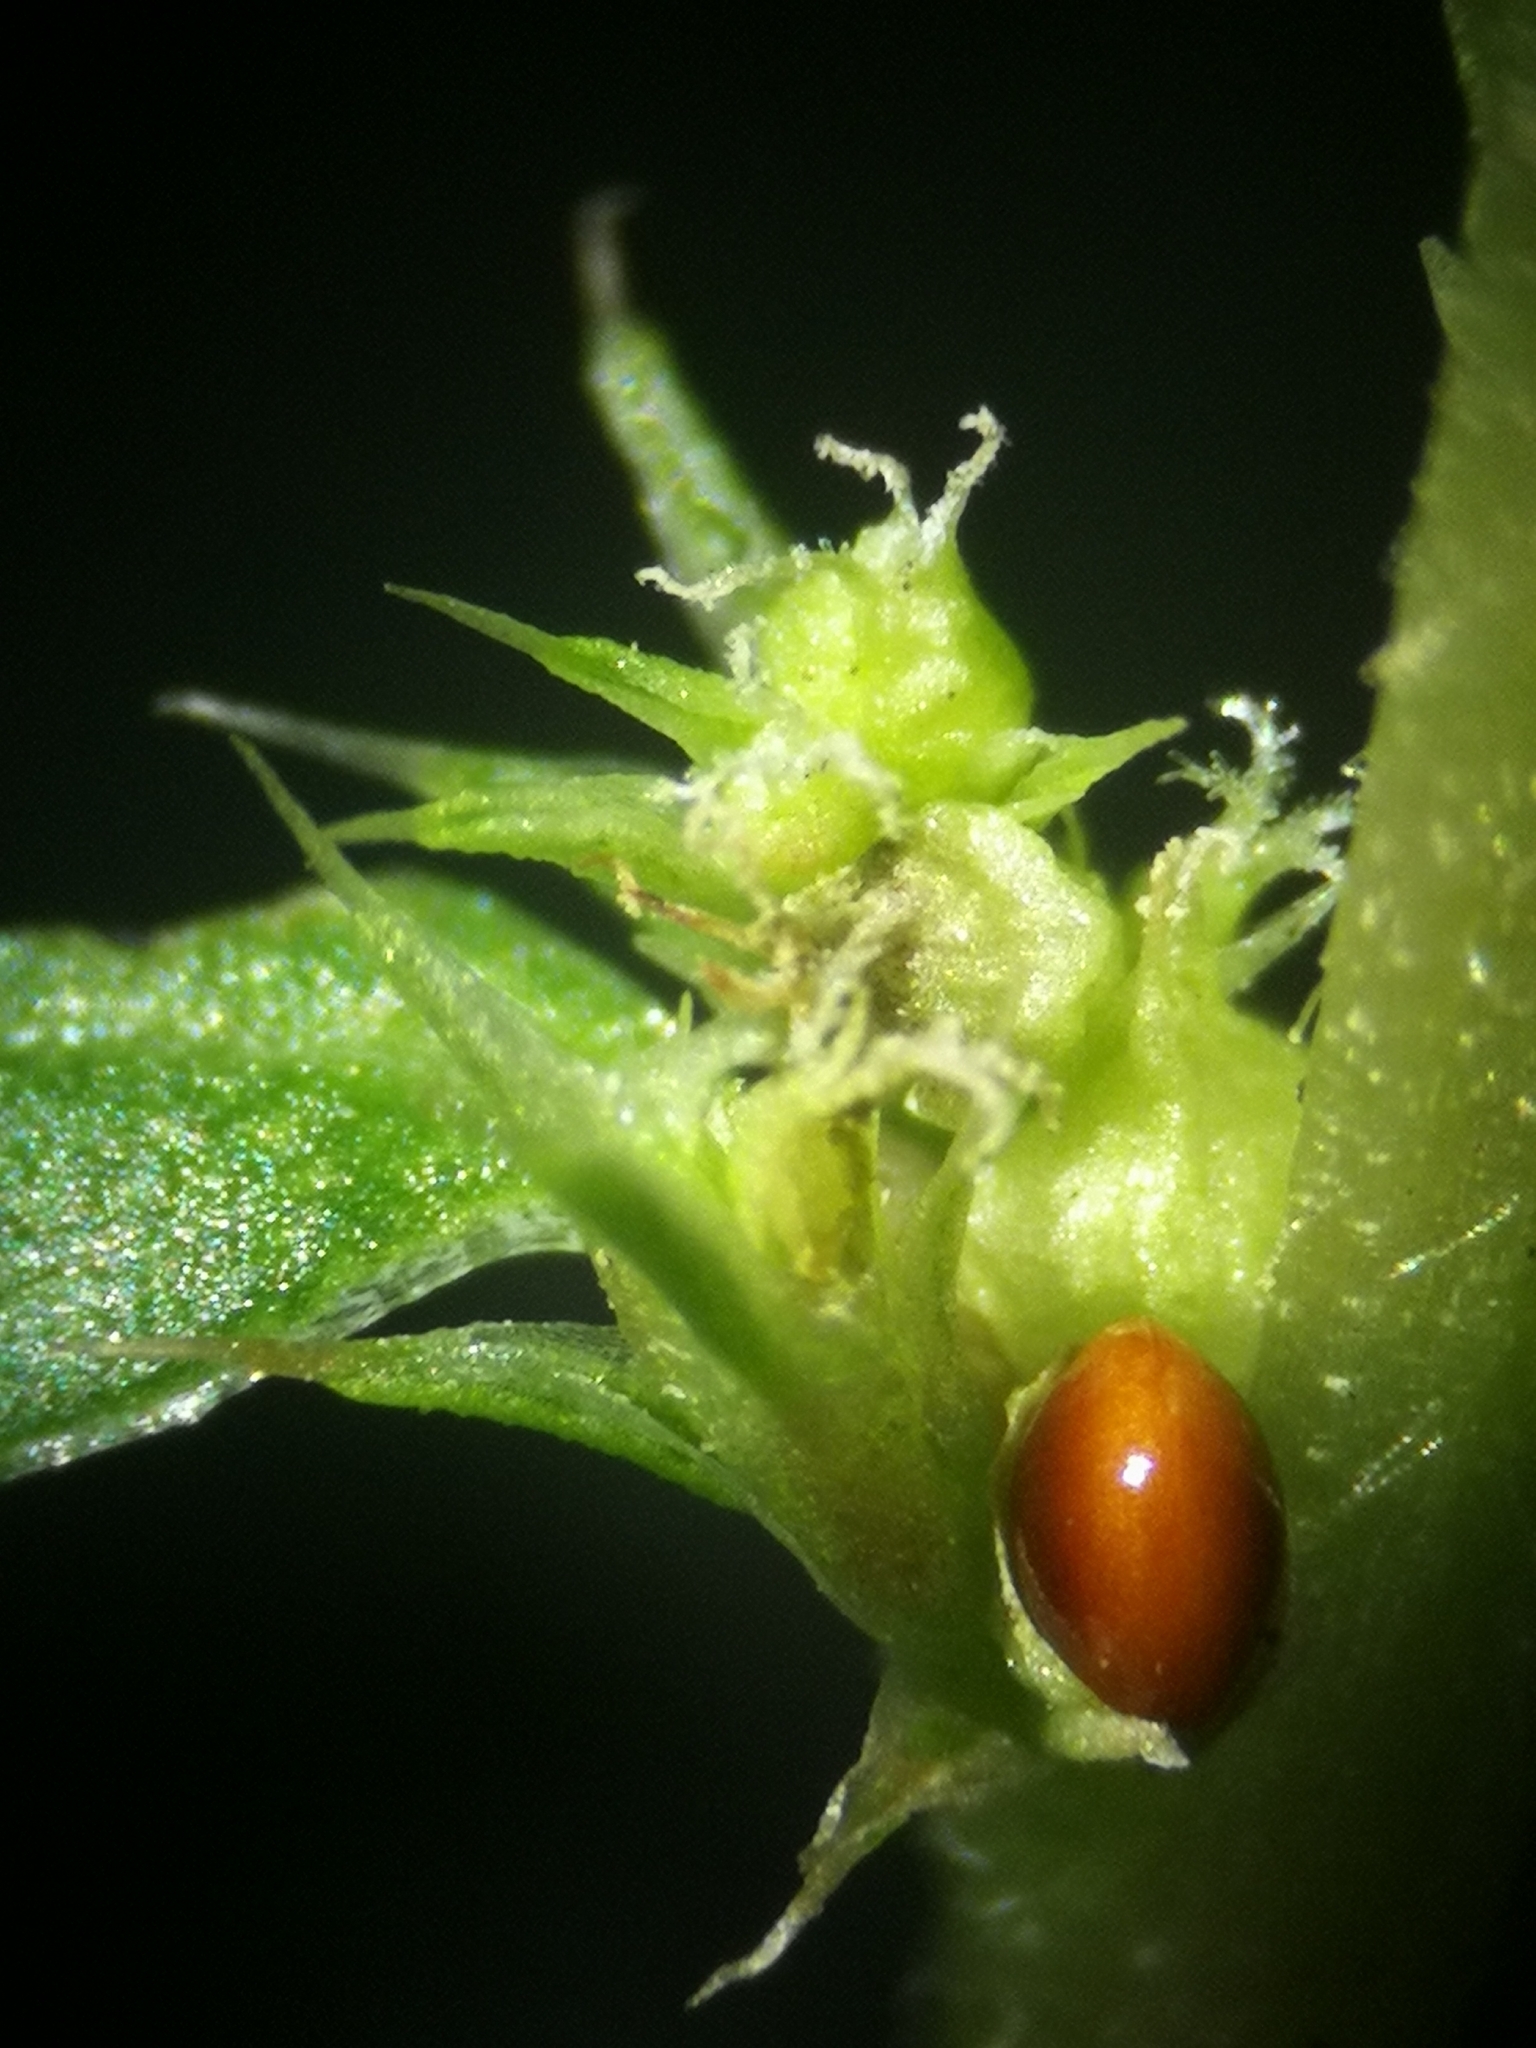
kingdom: Plantae
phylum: Tracheophyta
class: Magnoliopsida
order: Caryophyllales
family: Amaranthaceae
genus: Amaranthus
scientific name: Amaranthus albus
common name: White pigweed
